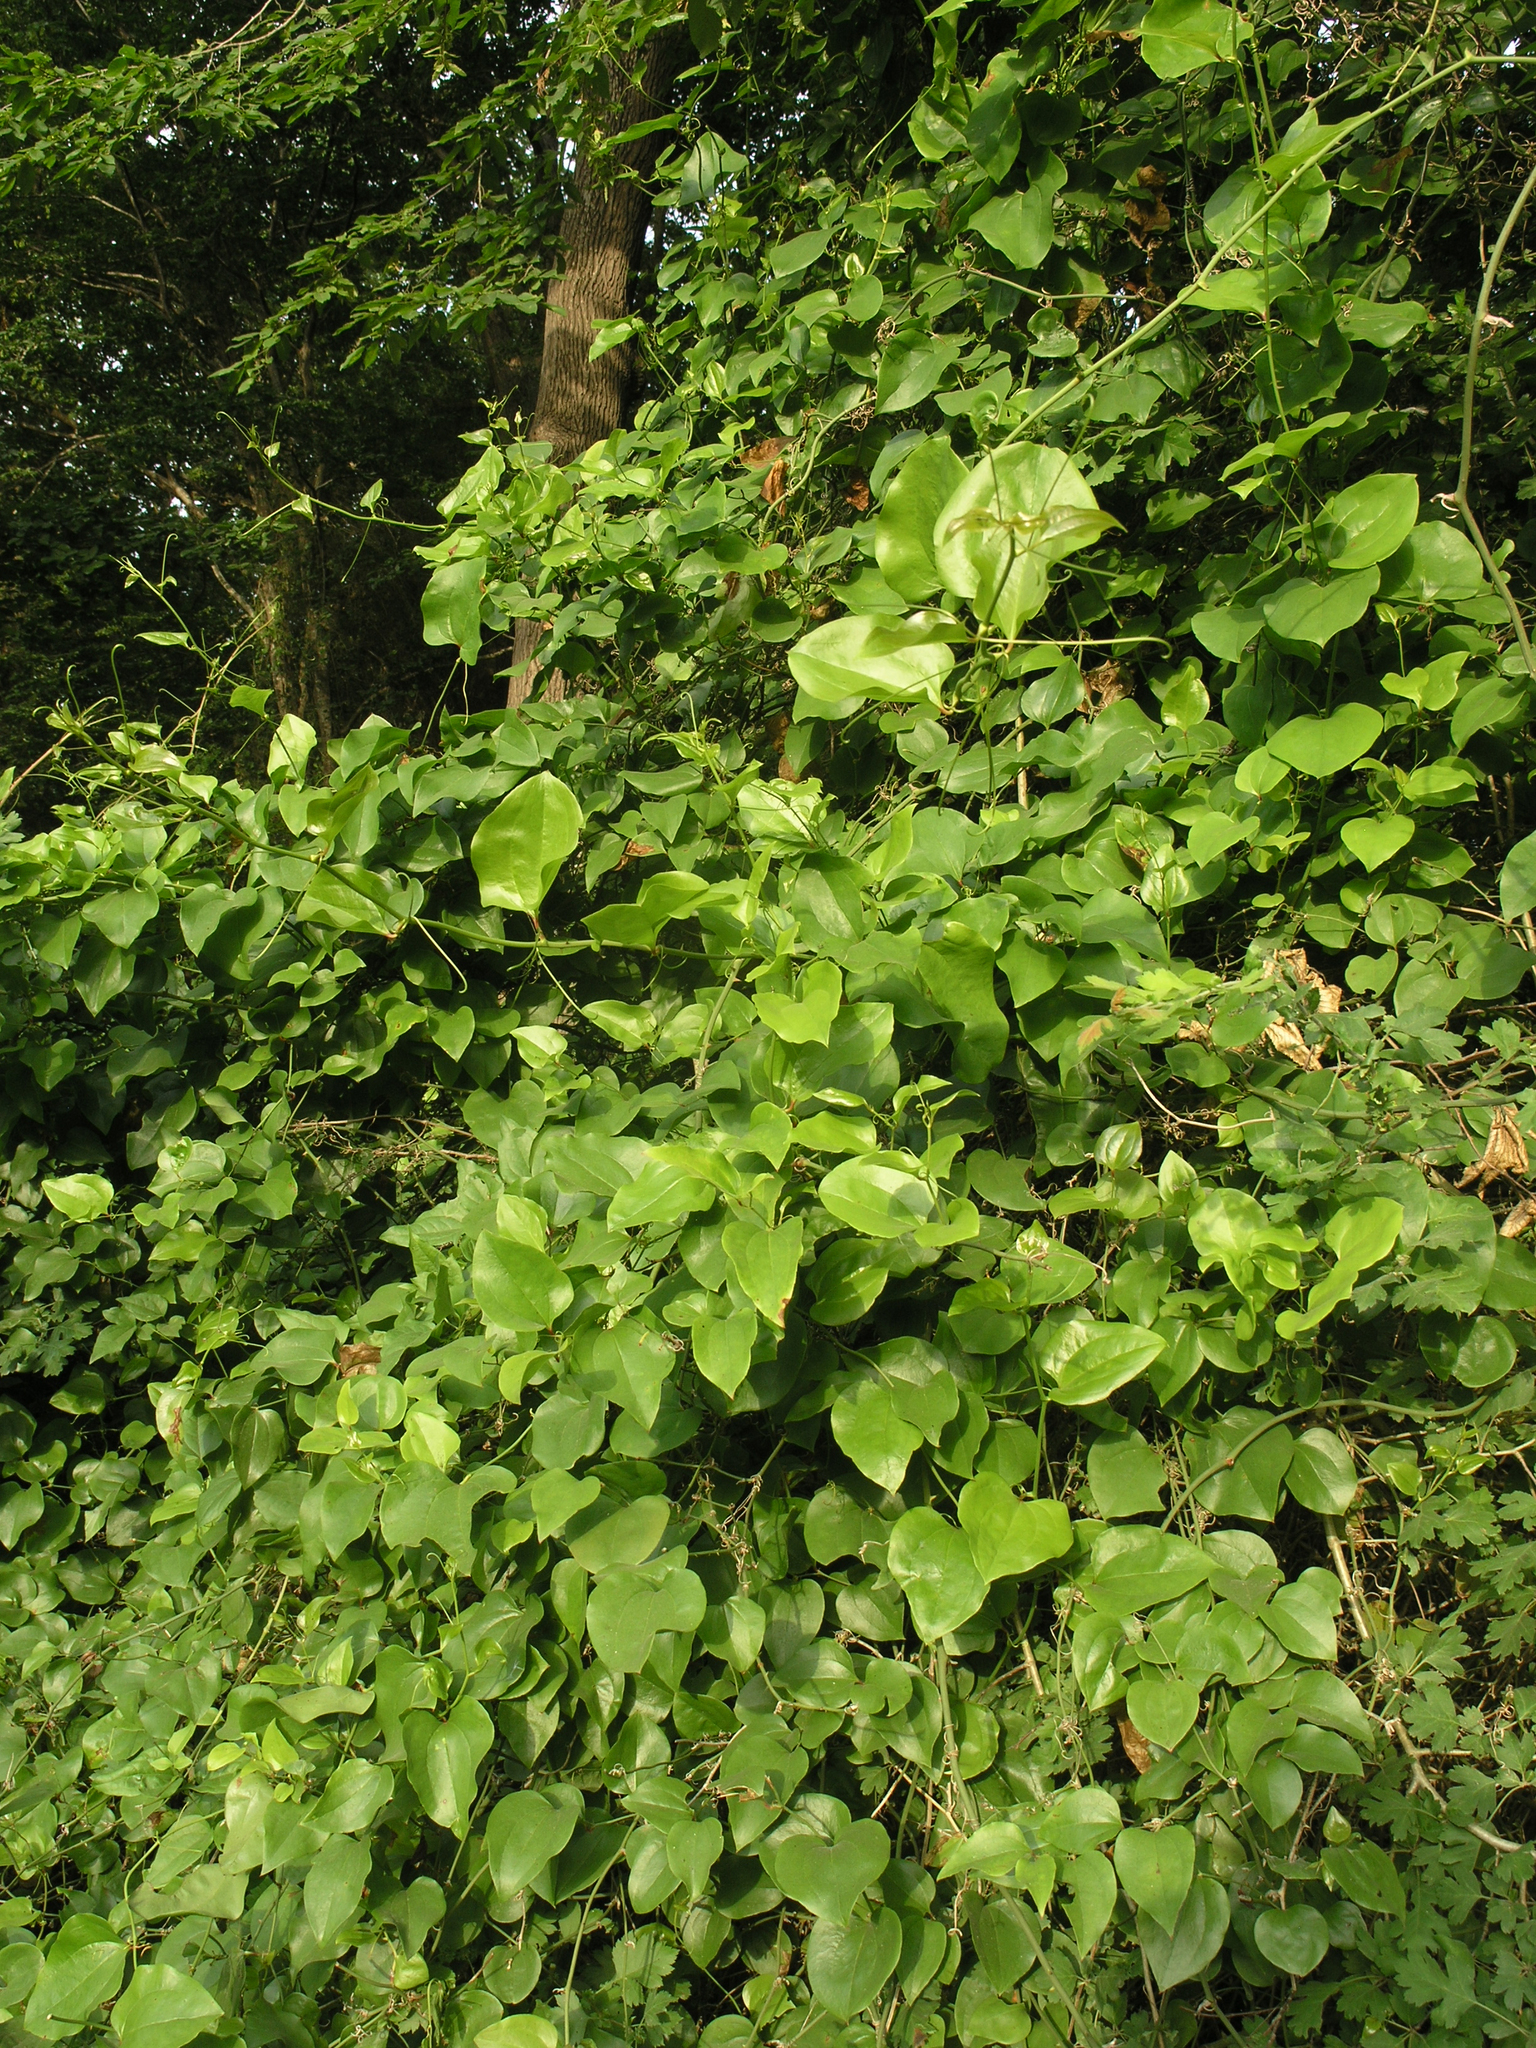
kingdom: Plantae
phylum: Tracheophyta
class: Liliopsida
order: Liliales
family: Smilacaceae
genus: Smilax
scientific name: Smilax excelsa
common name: Larger smilax
